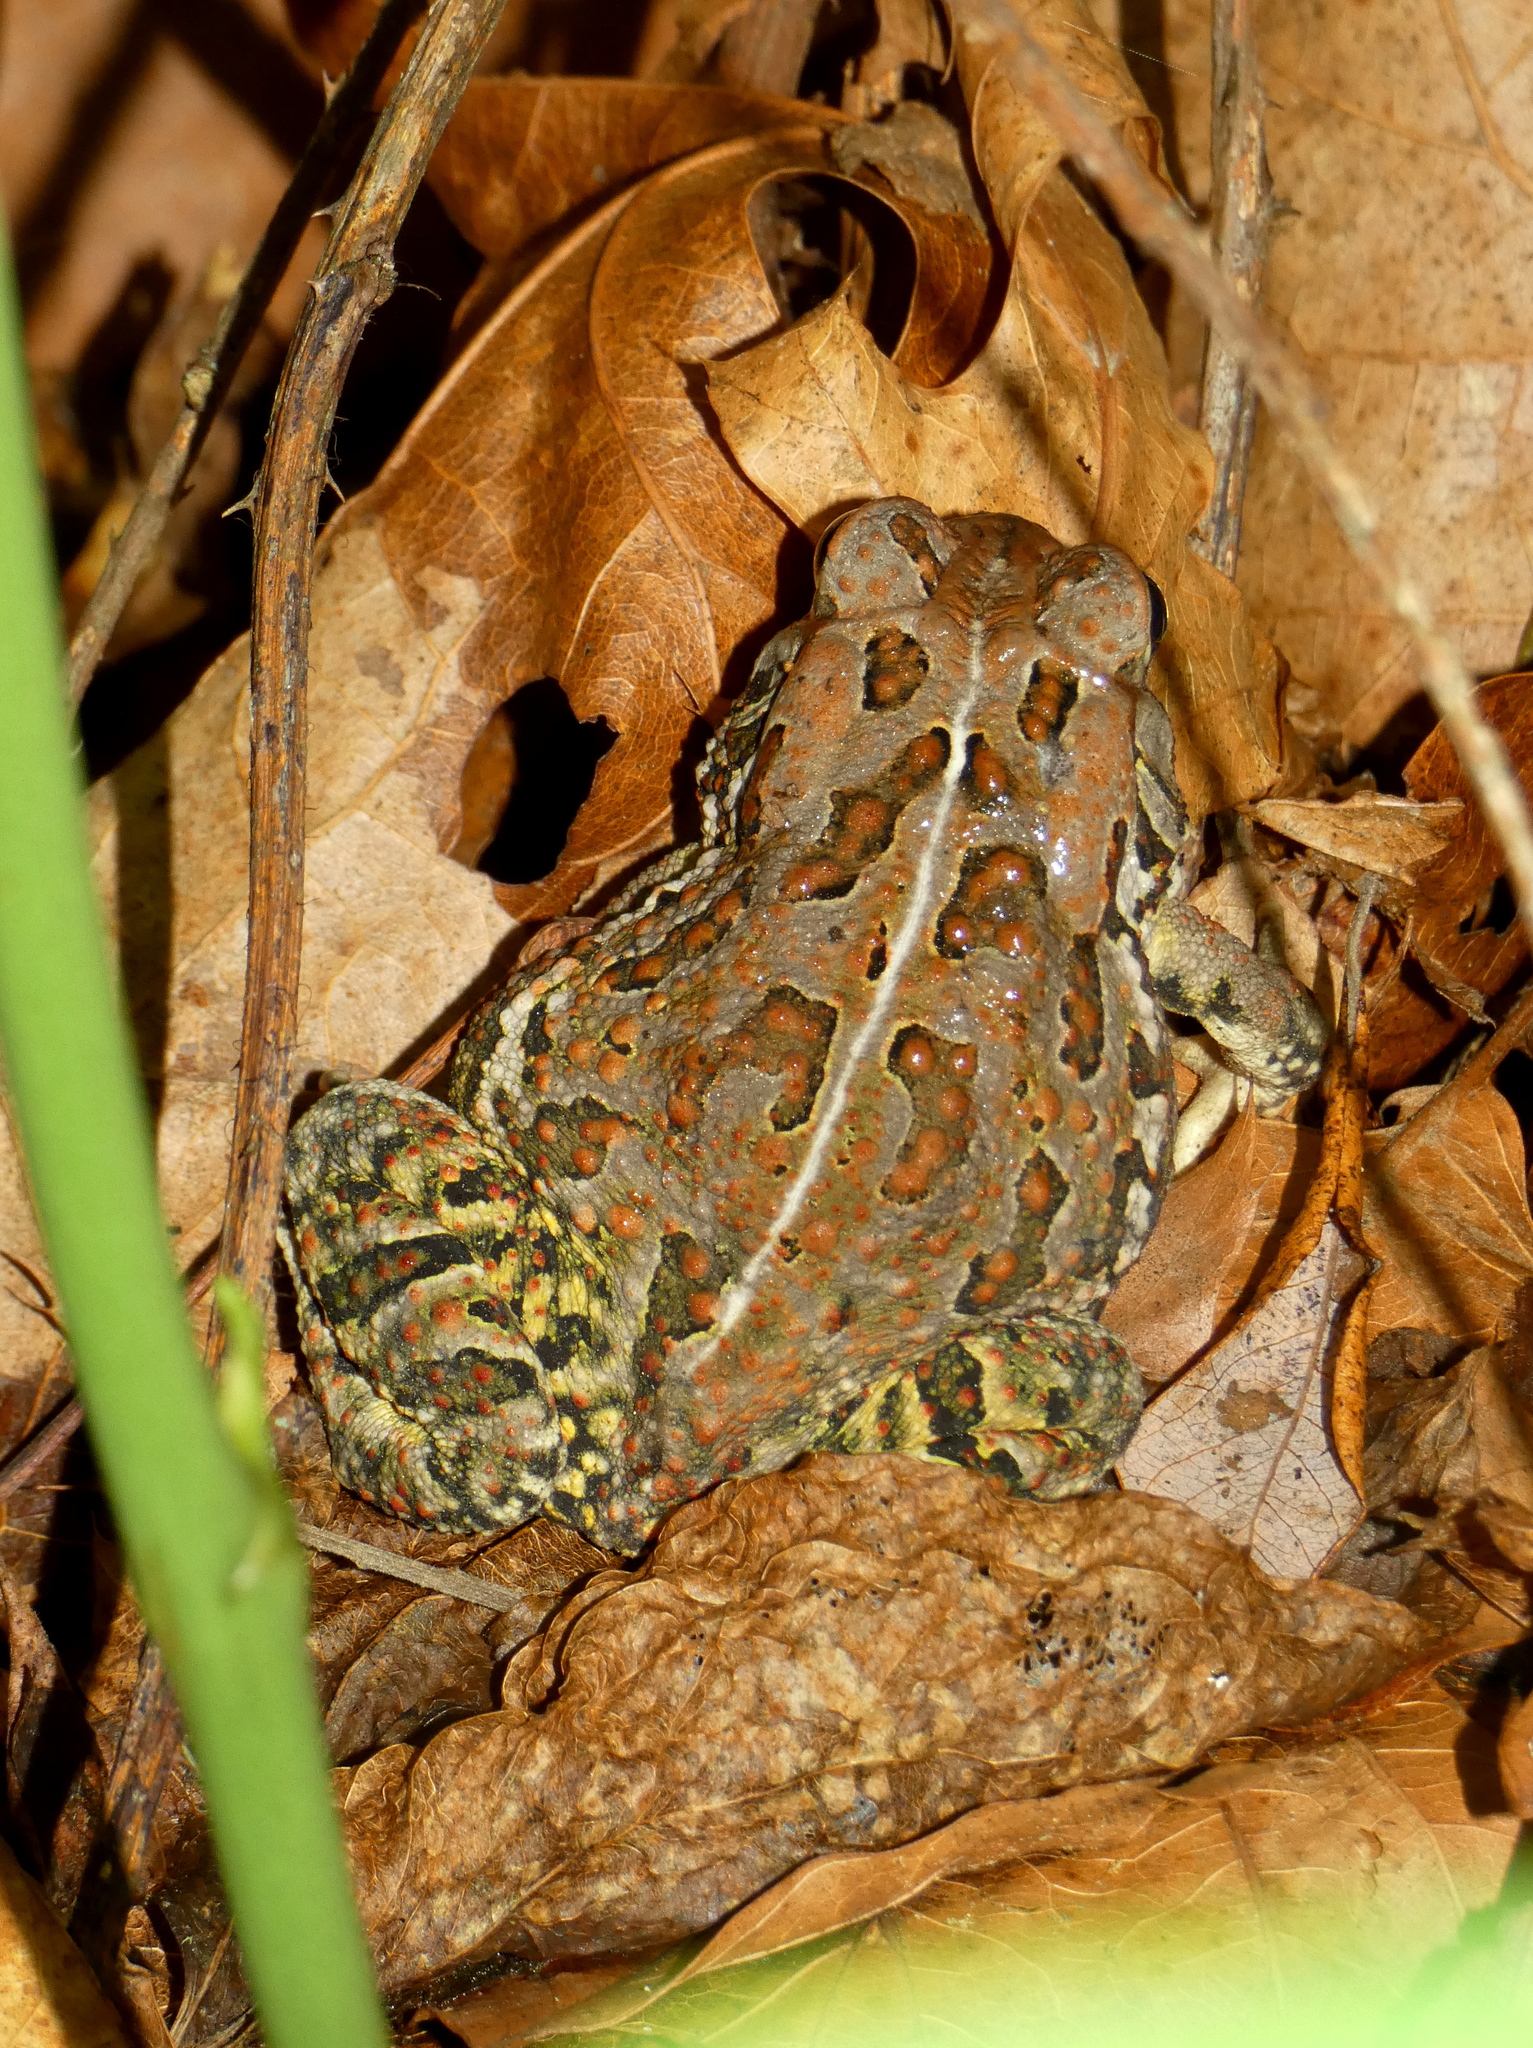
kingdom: Animalia
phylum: Chordata
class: Amphibia
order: Anura
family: Bufonidae
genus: Anaxyrus
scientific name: Anaxyrus fowleri
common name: Fowler's toad
